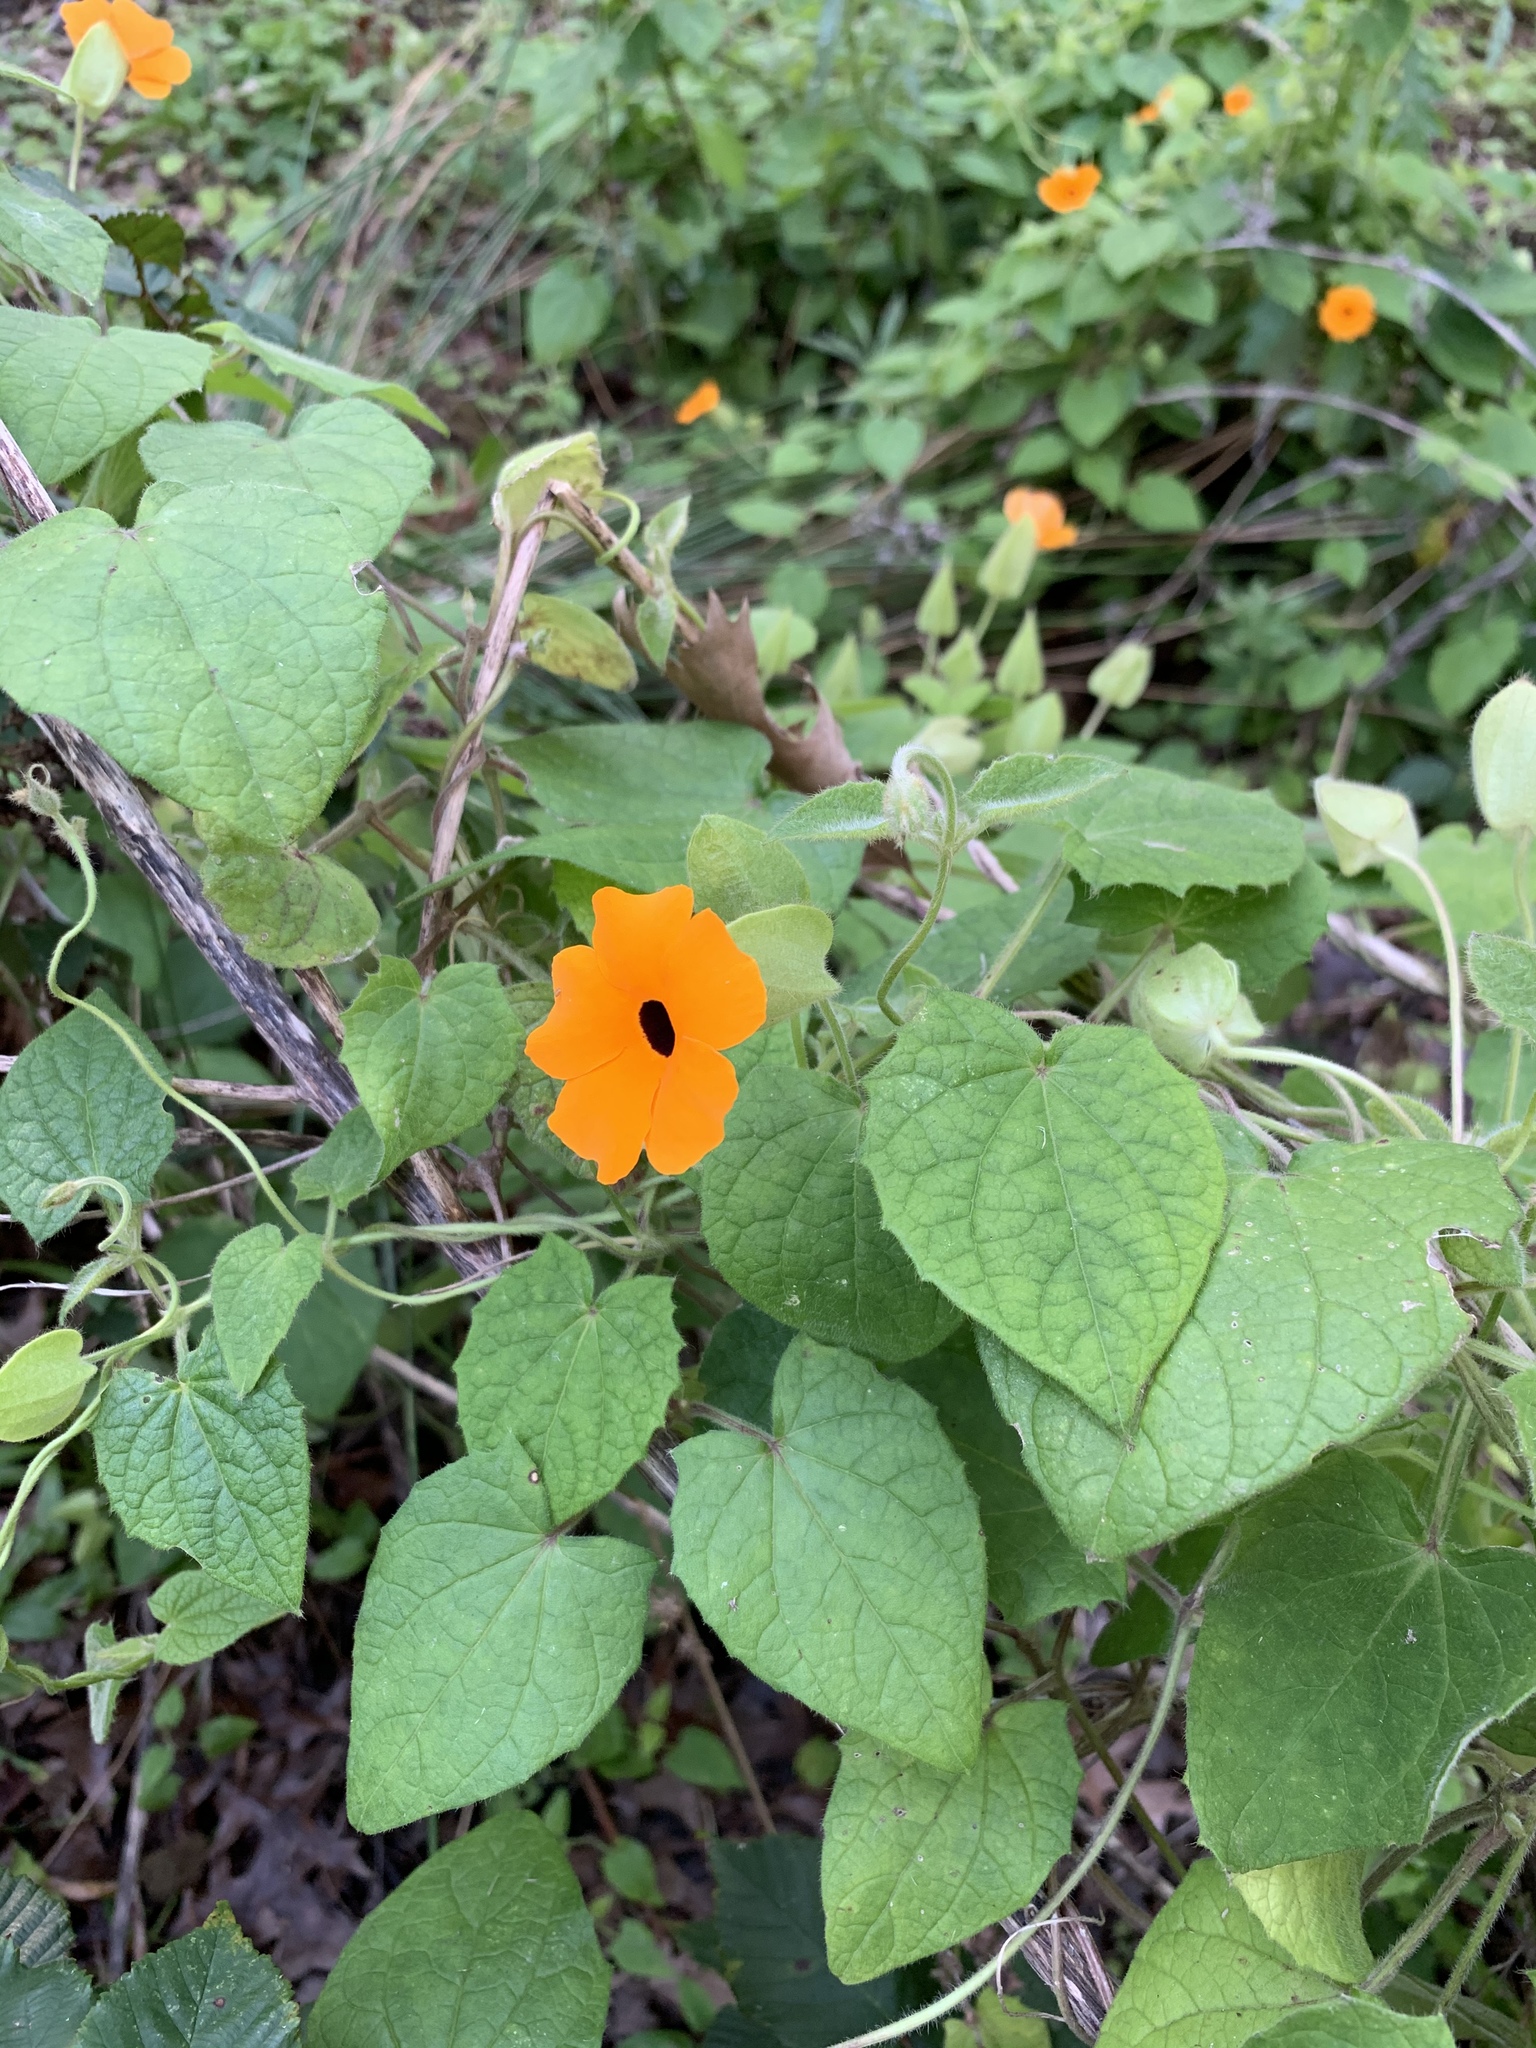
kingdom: Plantae
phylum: Tracheophyta
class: Magnoliopsida
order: Lamiales
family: Acanthaceae
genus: Thunbergia
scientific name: Thunbergia alata
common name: Blackeyed susan vine
